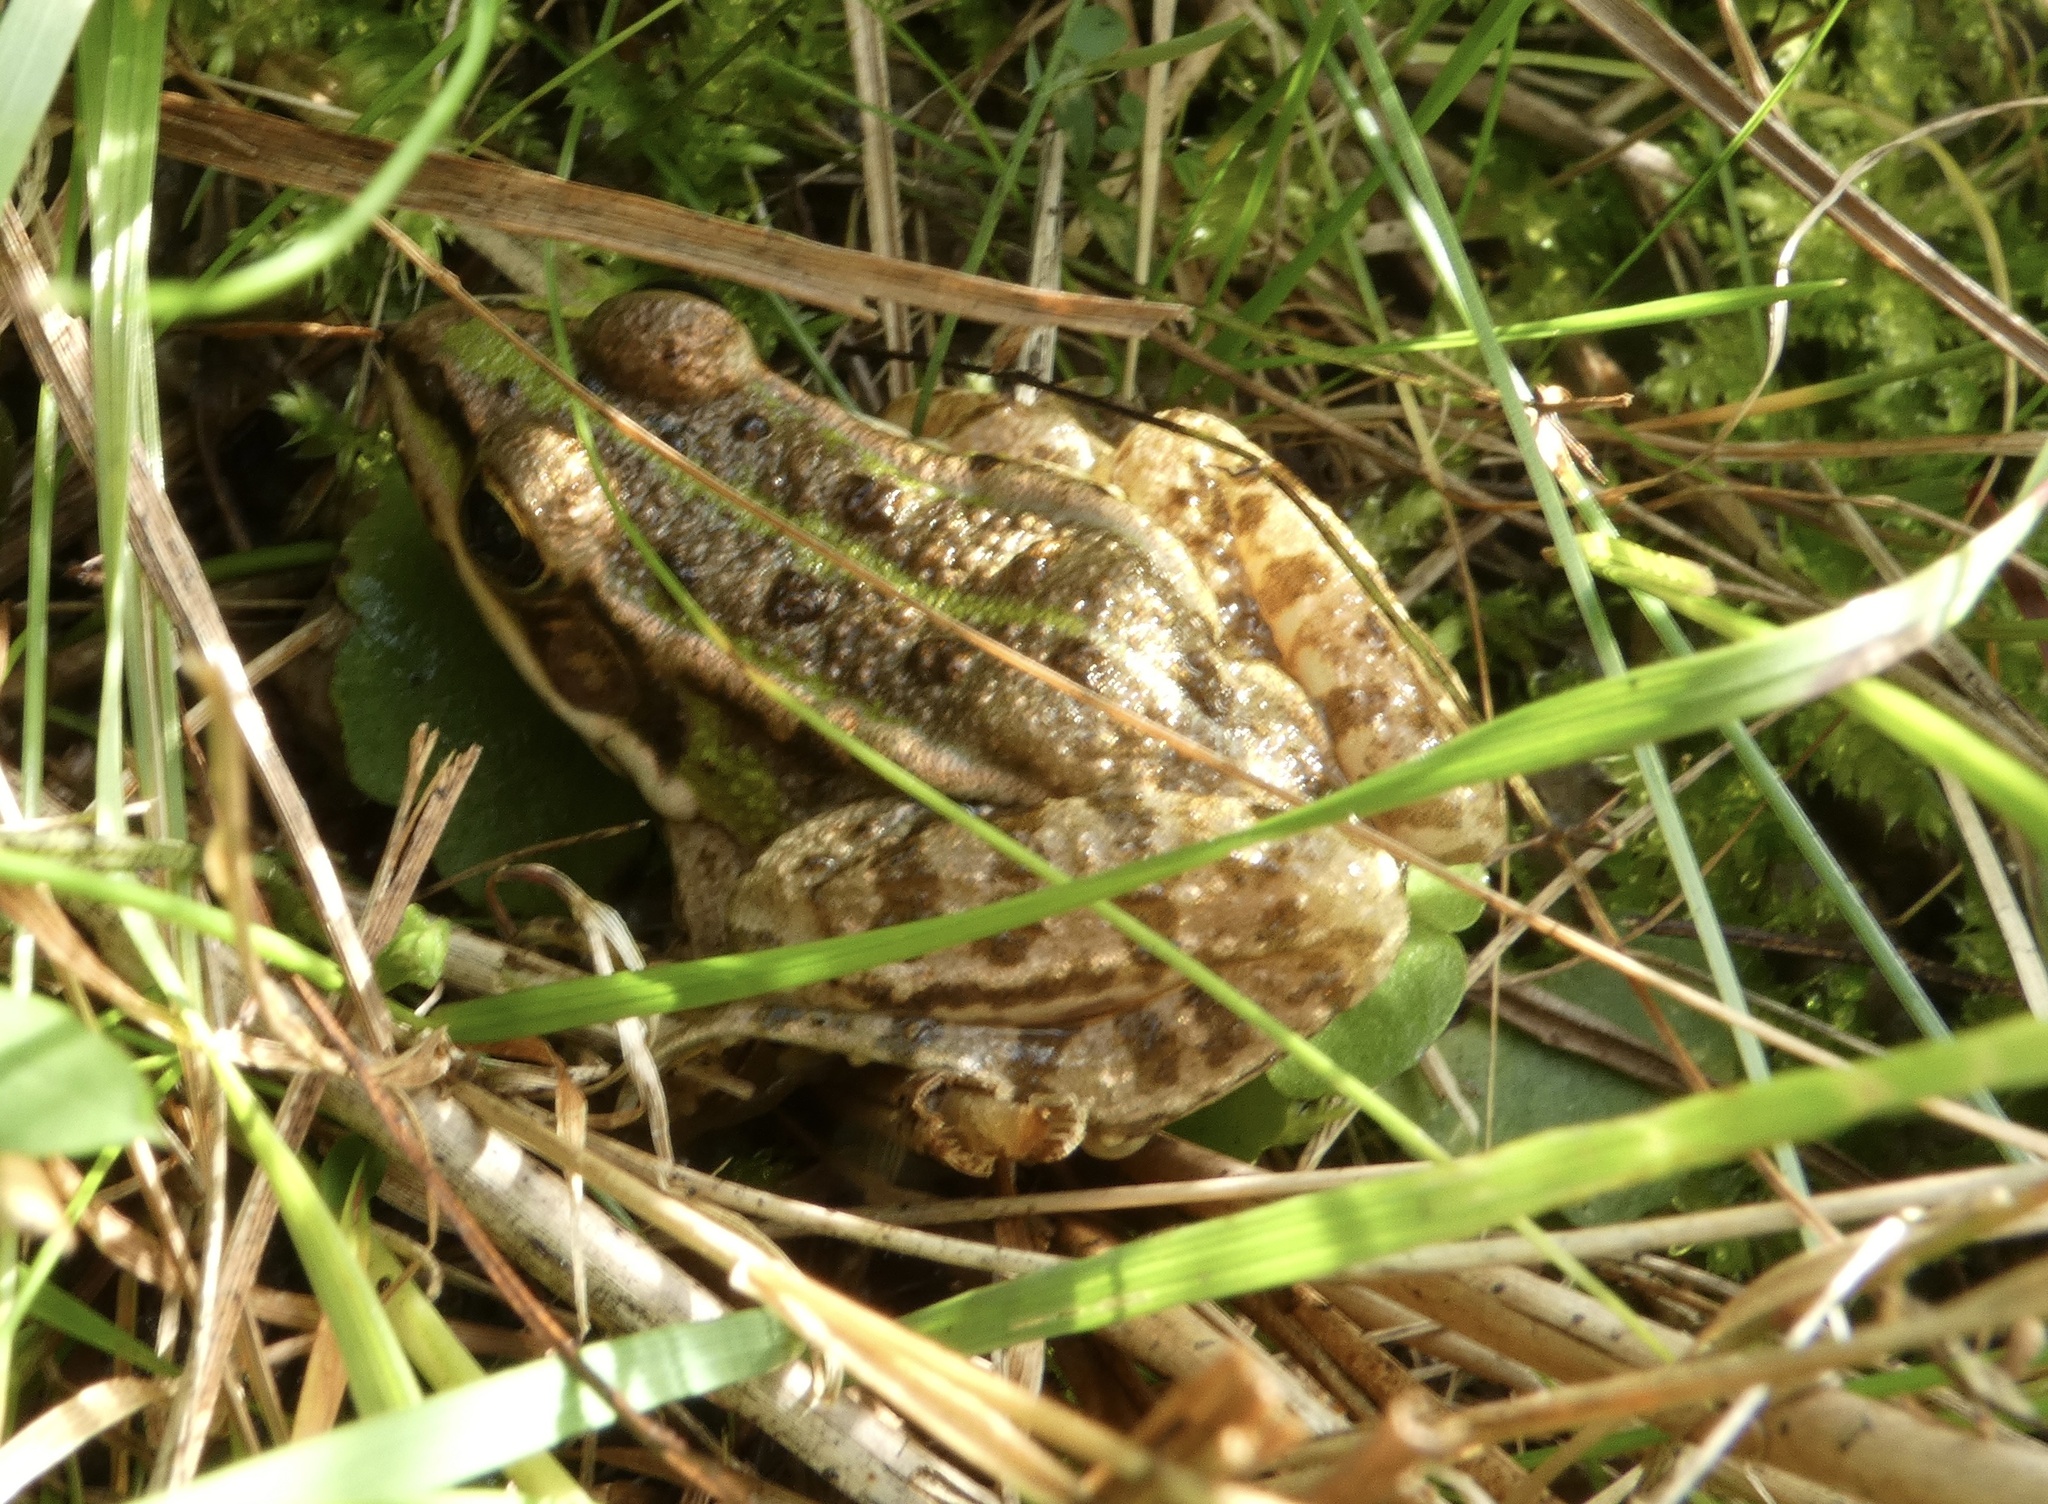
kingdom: Animalia
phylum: Chordata
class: Amphibia
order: Anura
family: Ranidae
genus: Pelophylax
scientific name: Pelophylax
